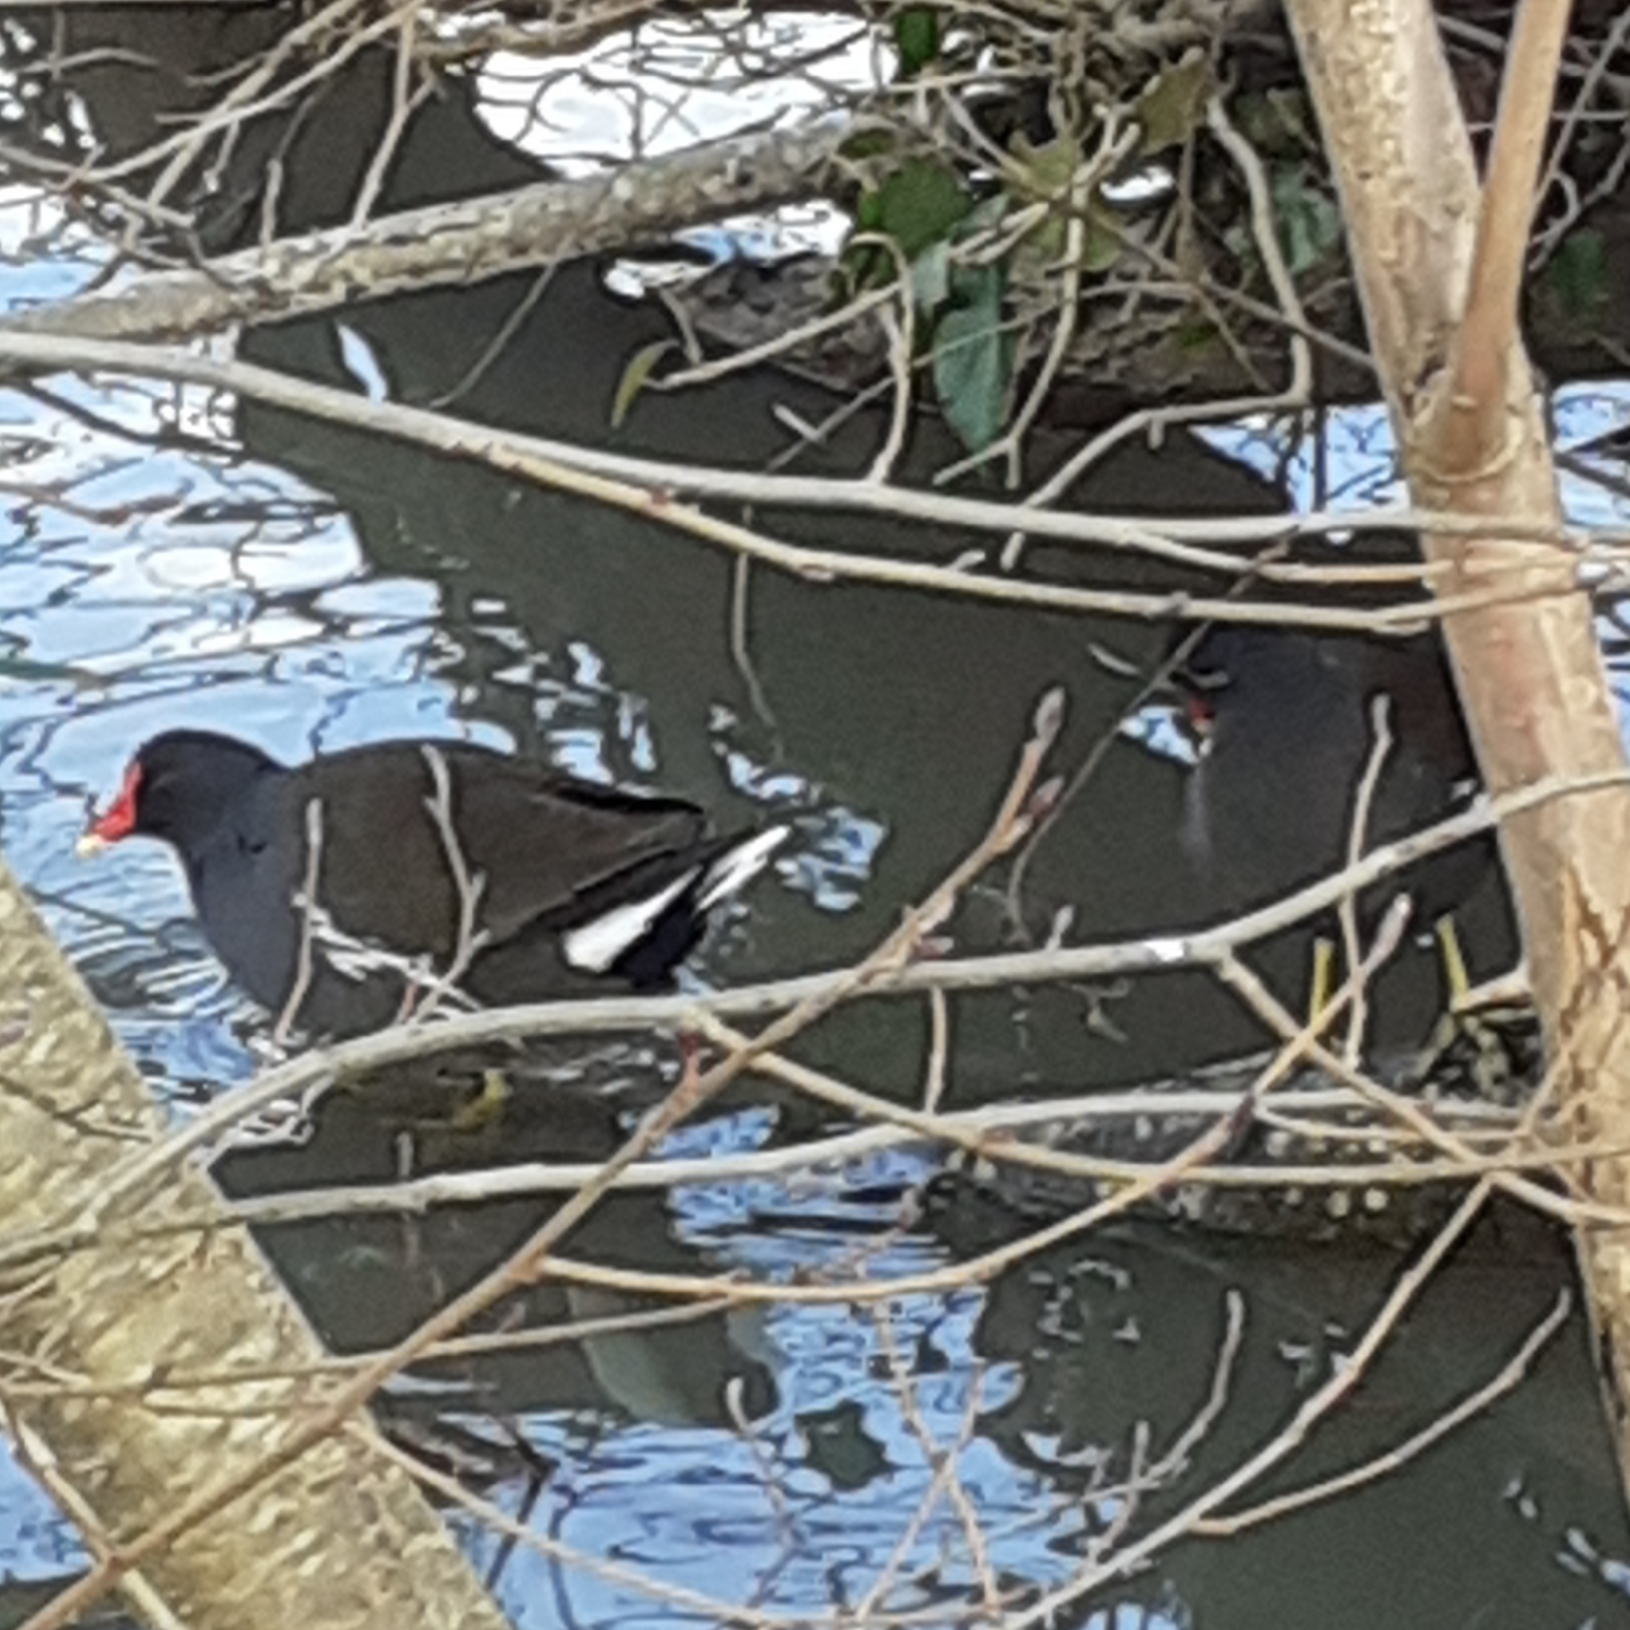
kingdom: Animalia
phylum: Chordata
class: Aves
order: Gruiformes
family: Rallidae
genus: Gallinula
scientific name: Gallinula chloropus
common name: Common moorhen
